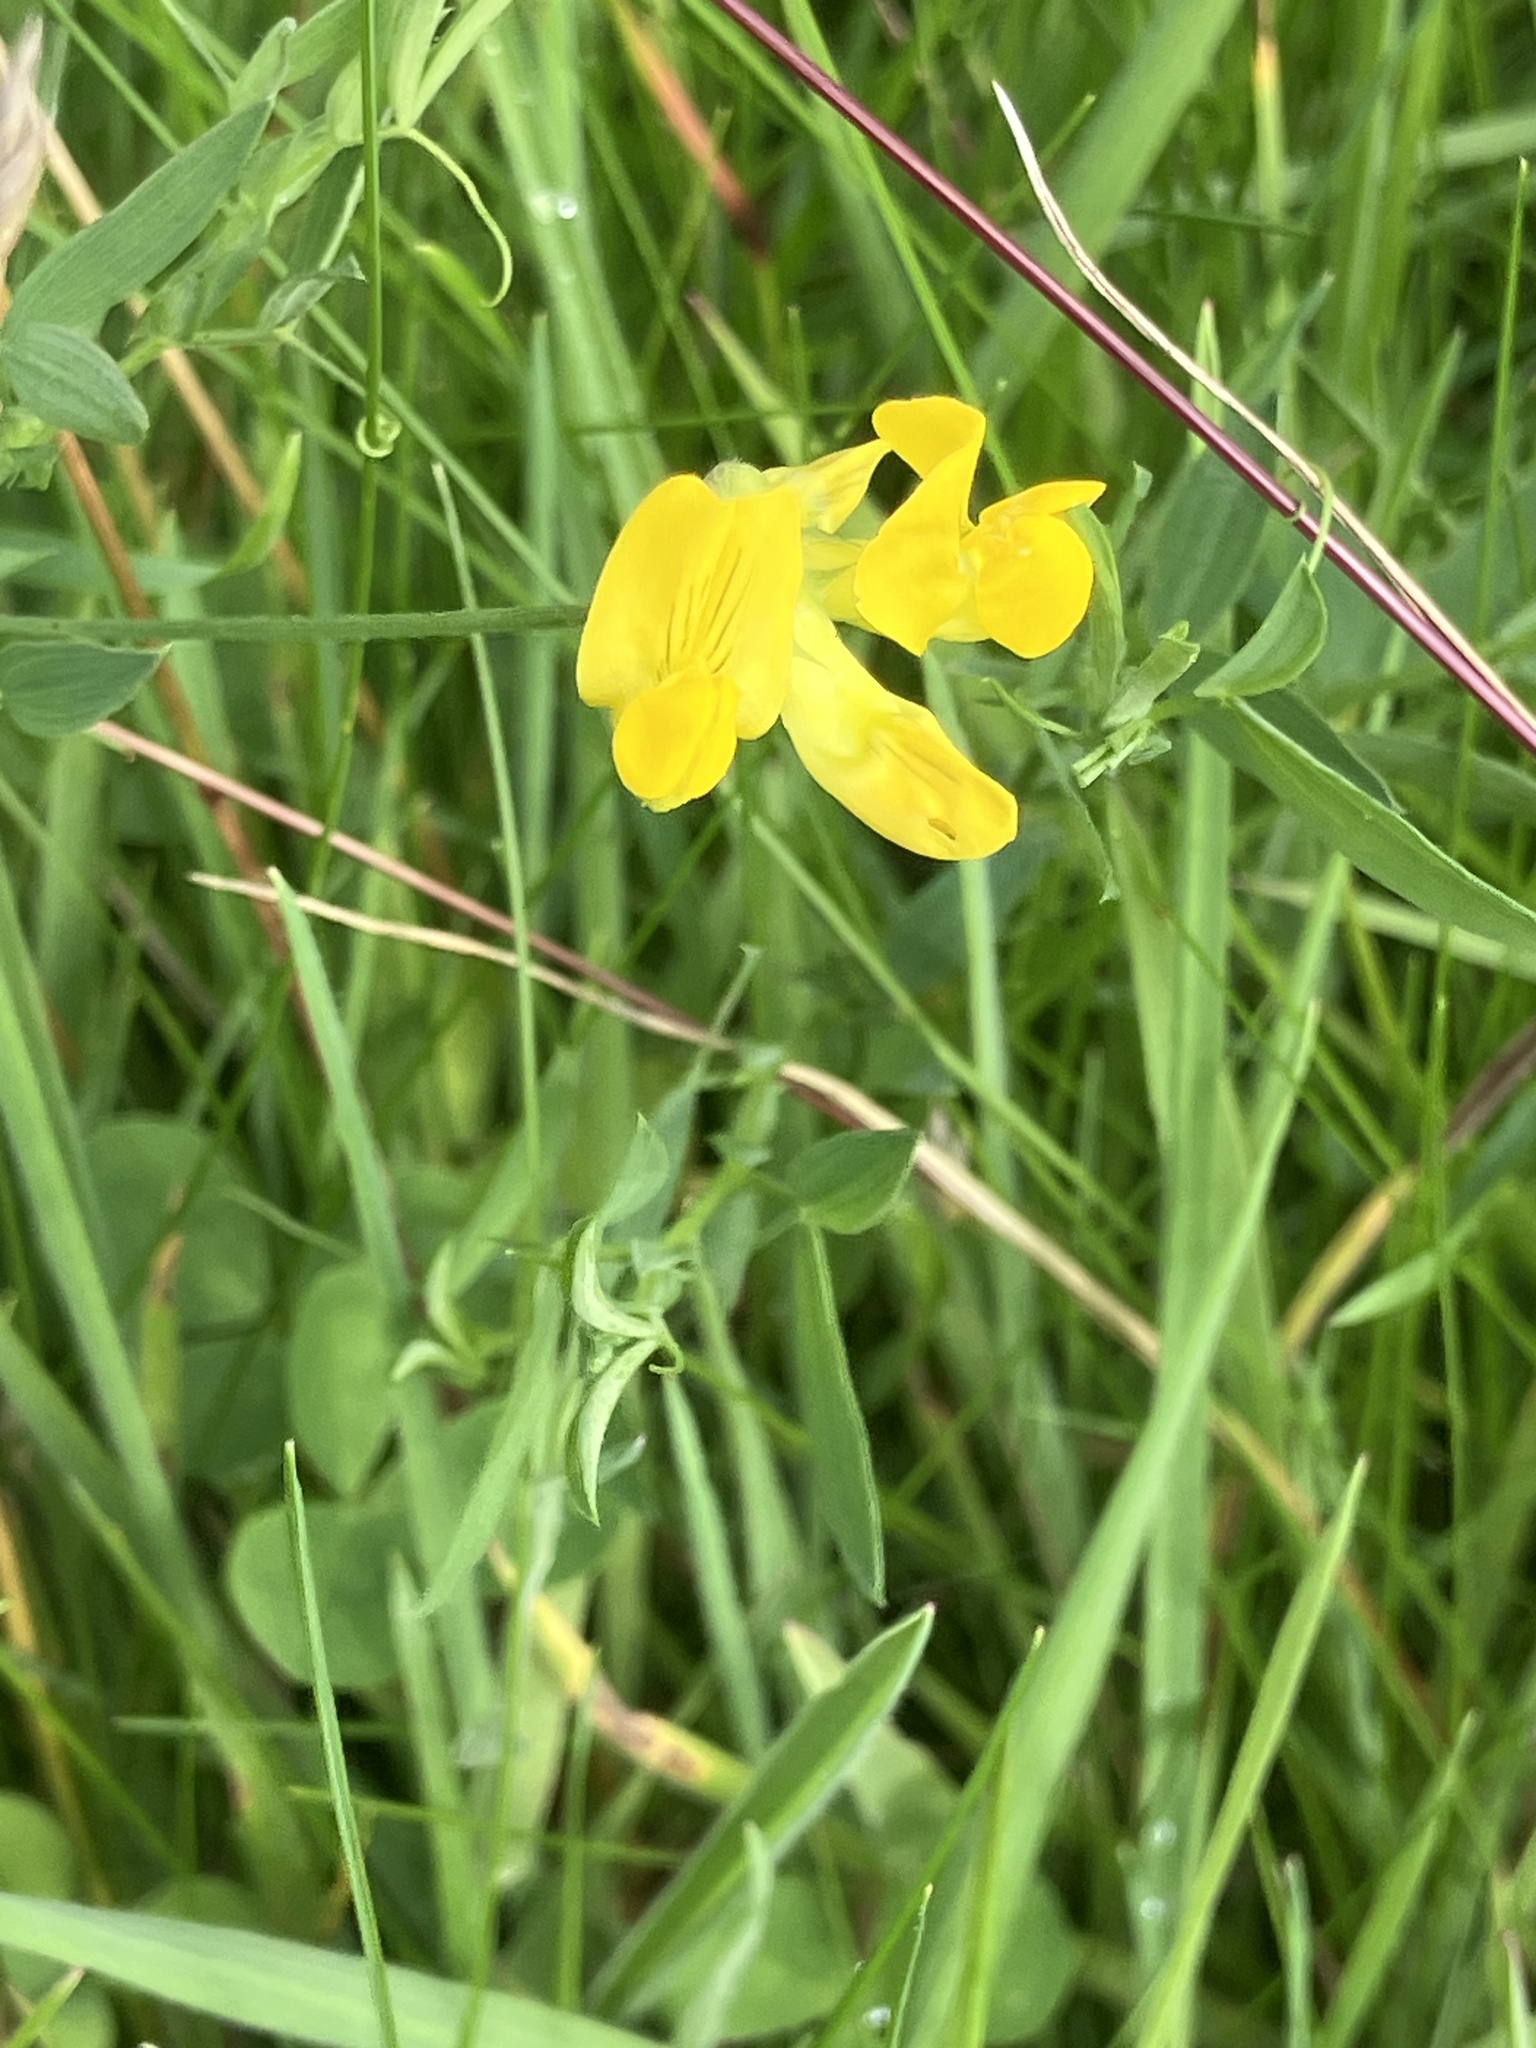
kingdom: Plantae
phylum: Tracheophyta
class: Magnoliopsida
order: Fabales
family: Fabaceae
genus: Lathyrus
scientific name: Lathyrus pratensis
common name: Meadow vetchling
